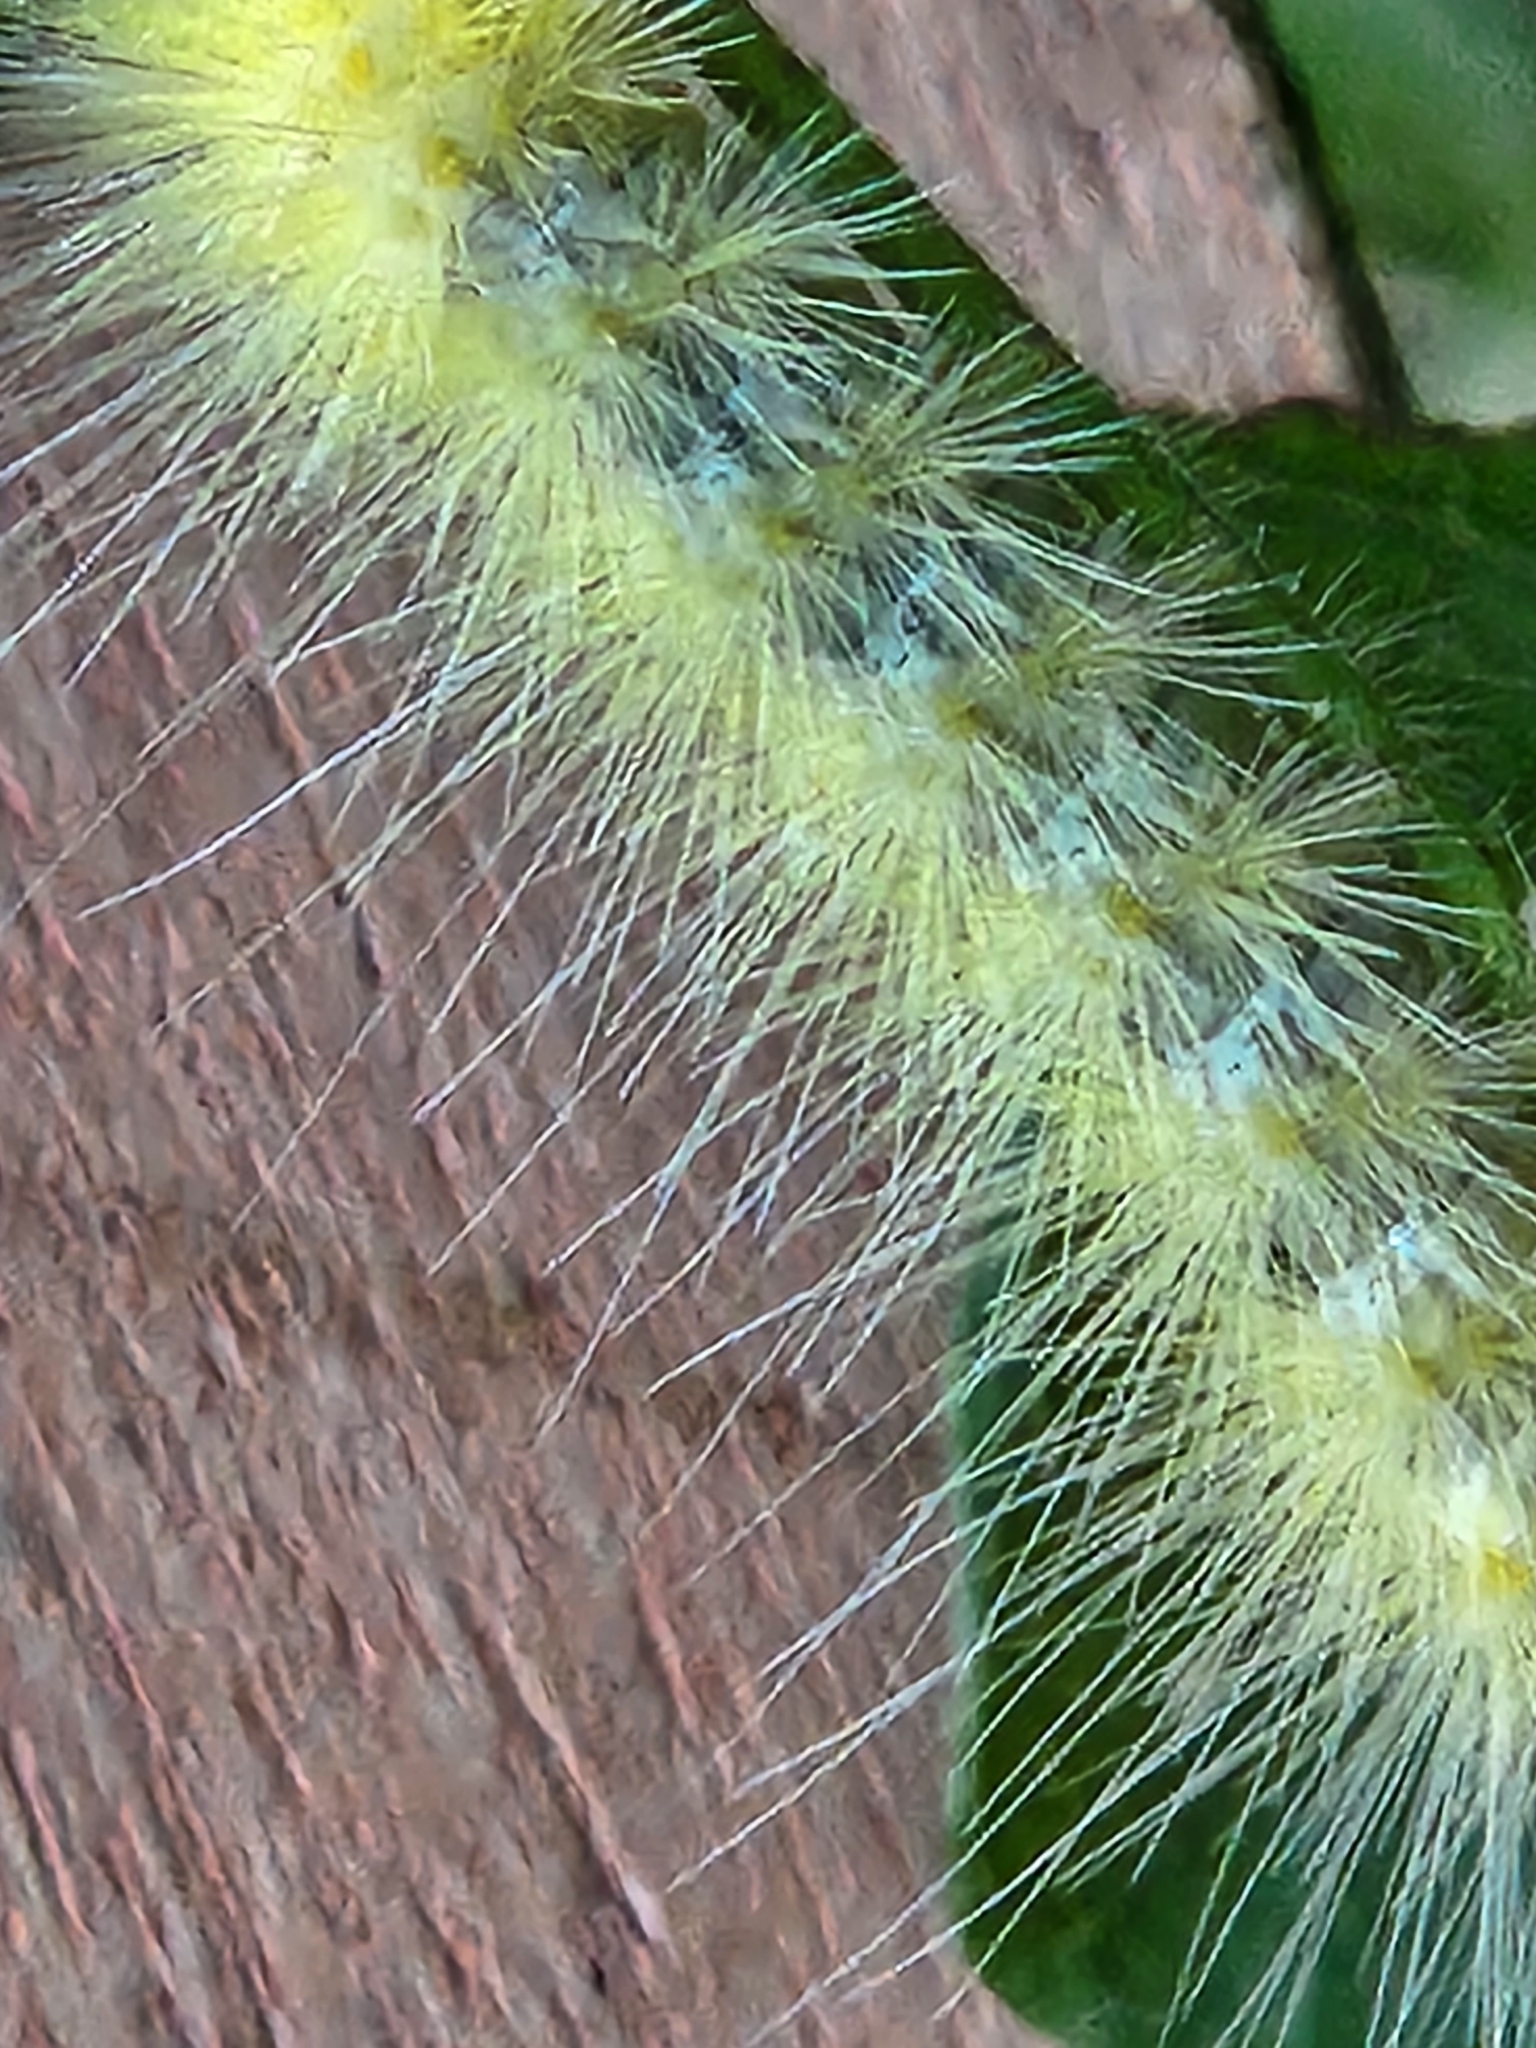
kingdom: Animalia
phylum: Arthropoda
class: Insecta
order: Lepidoptera
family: Erebidae
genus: Spilosoma
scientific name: Spilosoma virginica
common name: Virginia tiger moth
